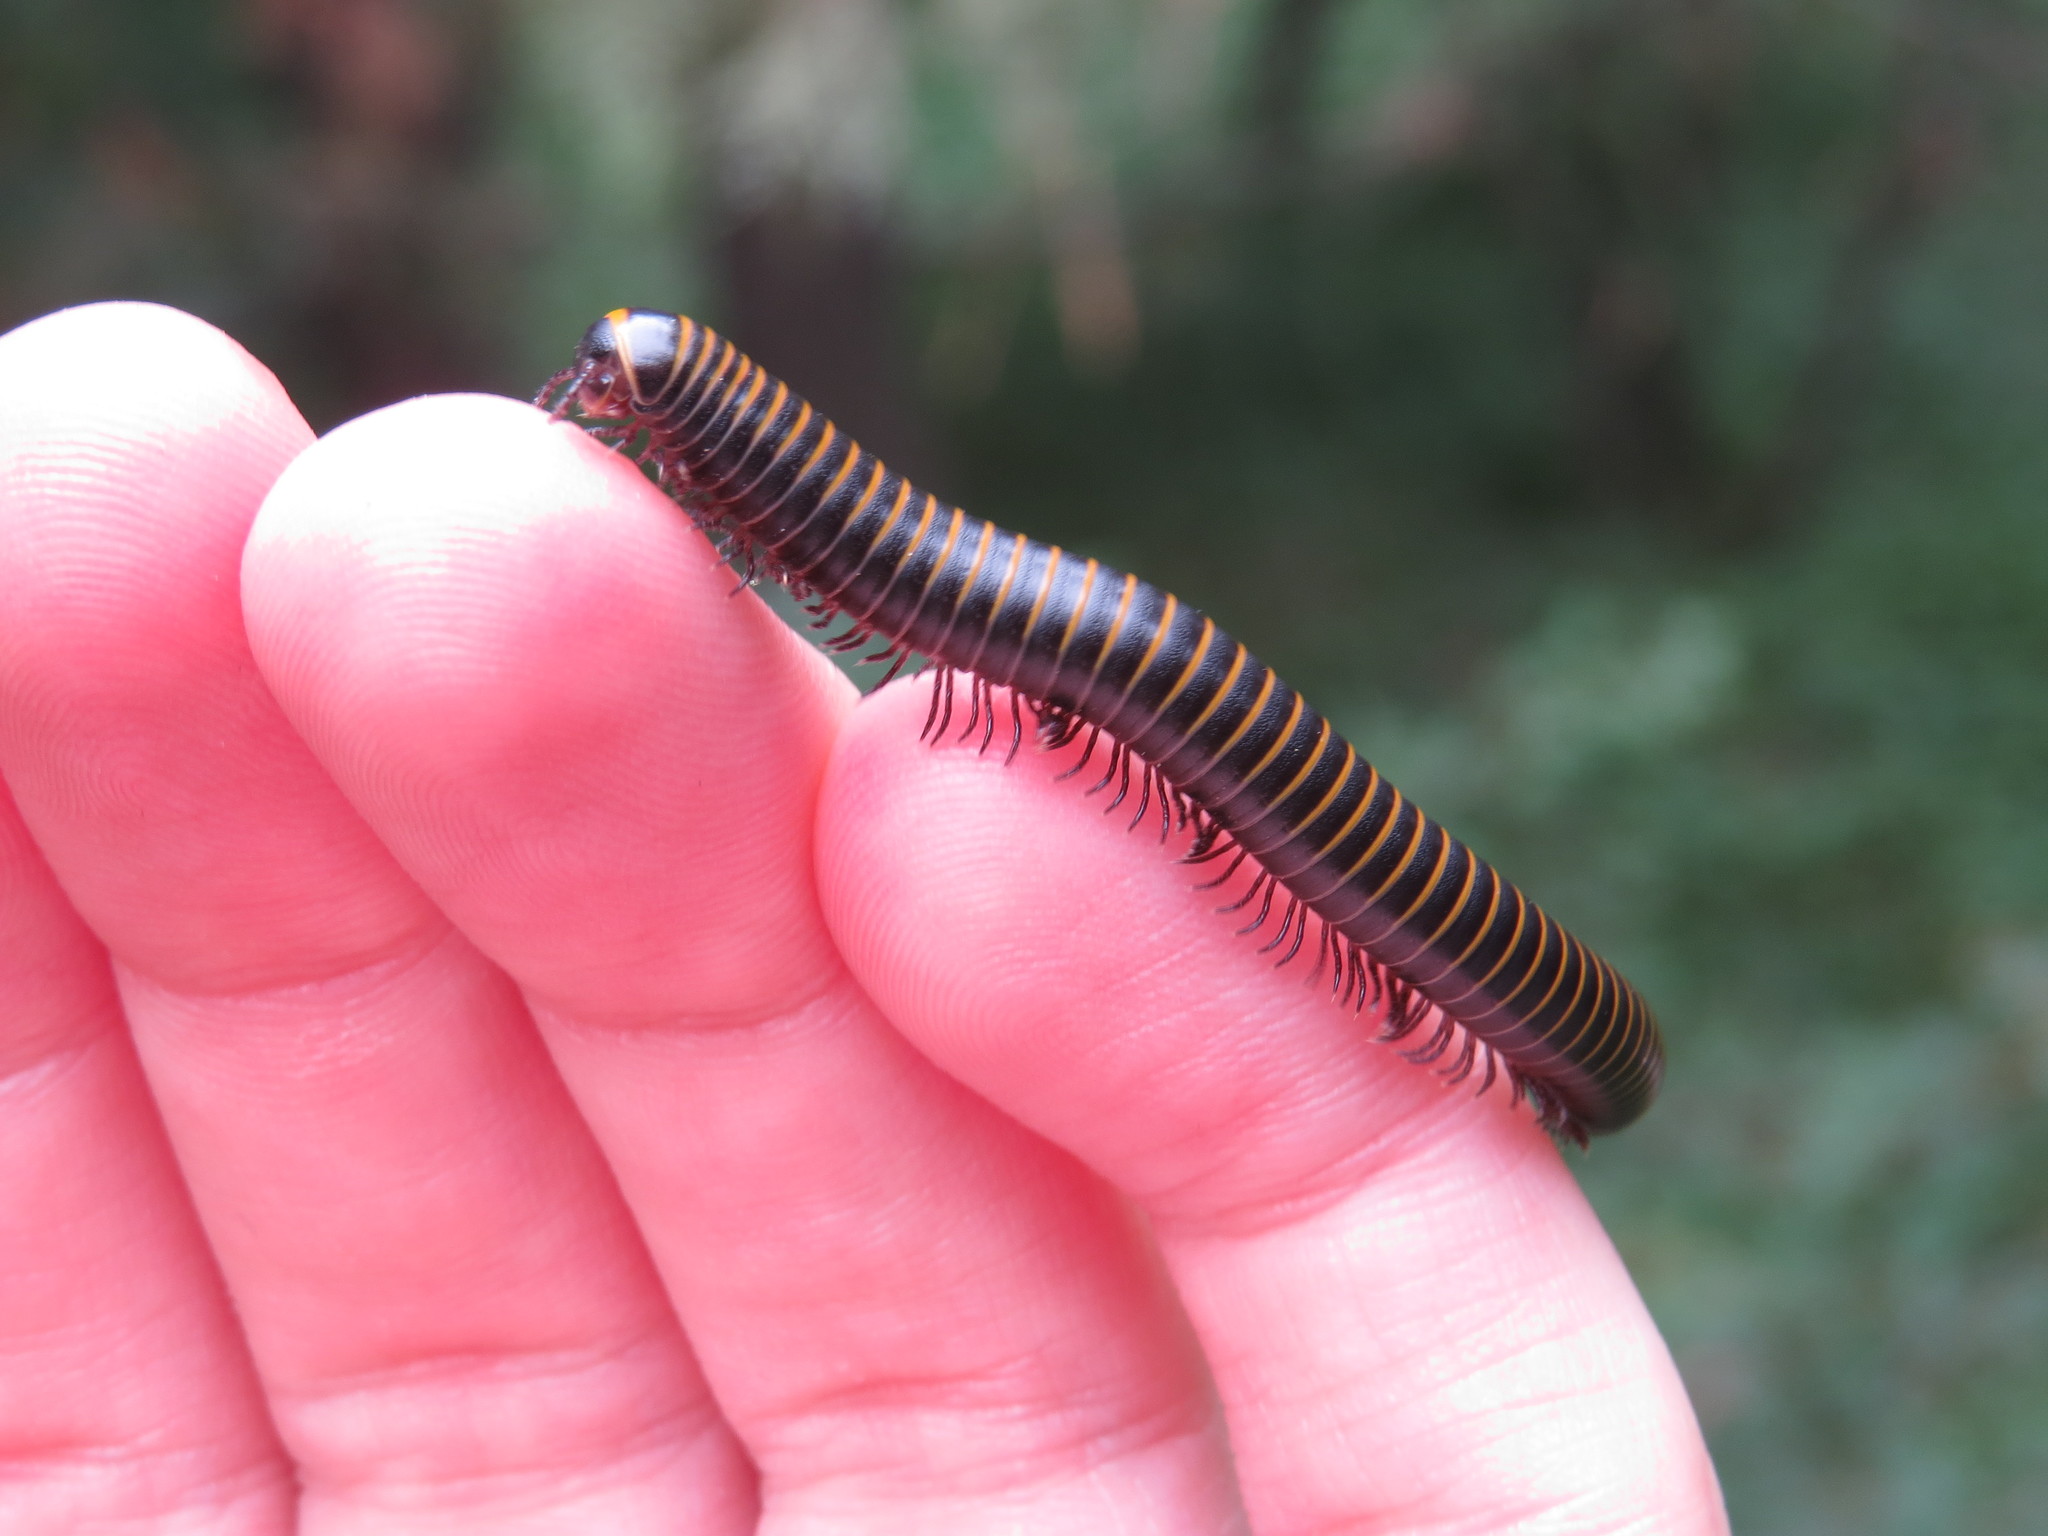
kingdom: Animalia
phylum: Arthropoda
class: Diplopoda
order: Spirobolida
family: Spirobolidae
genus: Spirobolus
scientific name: Spirobolus bungii
